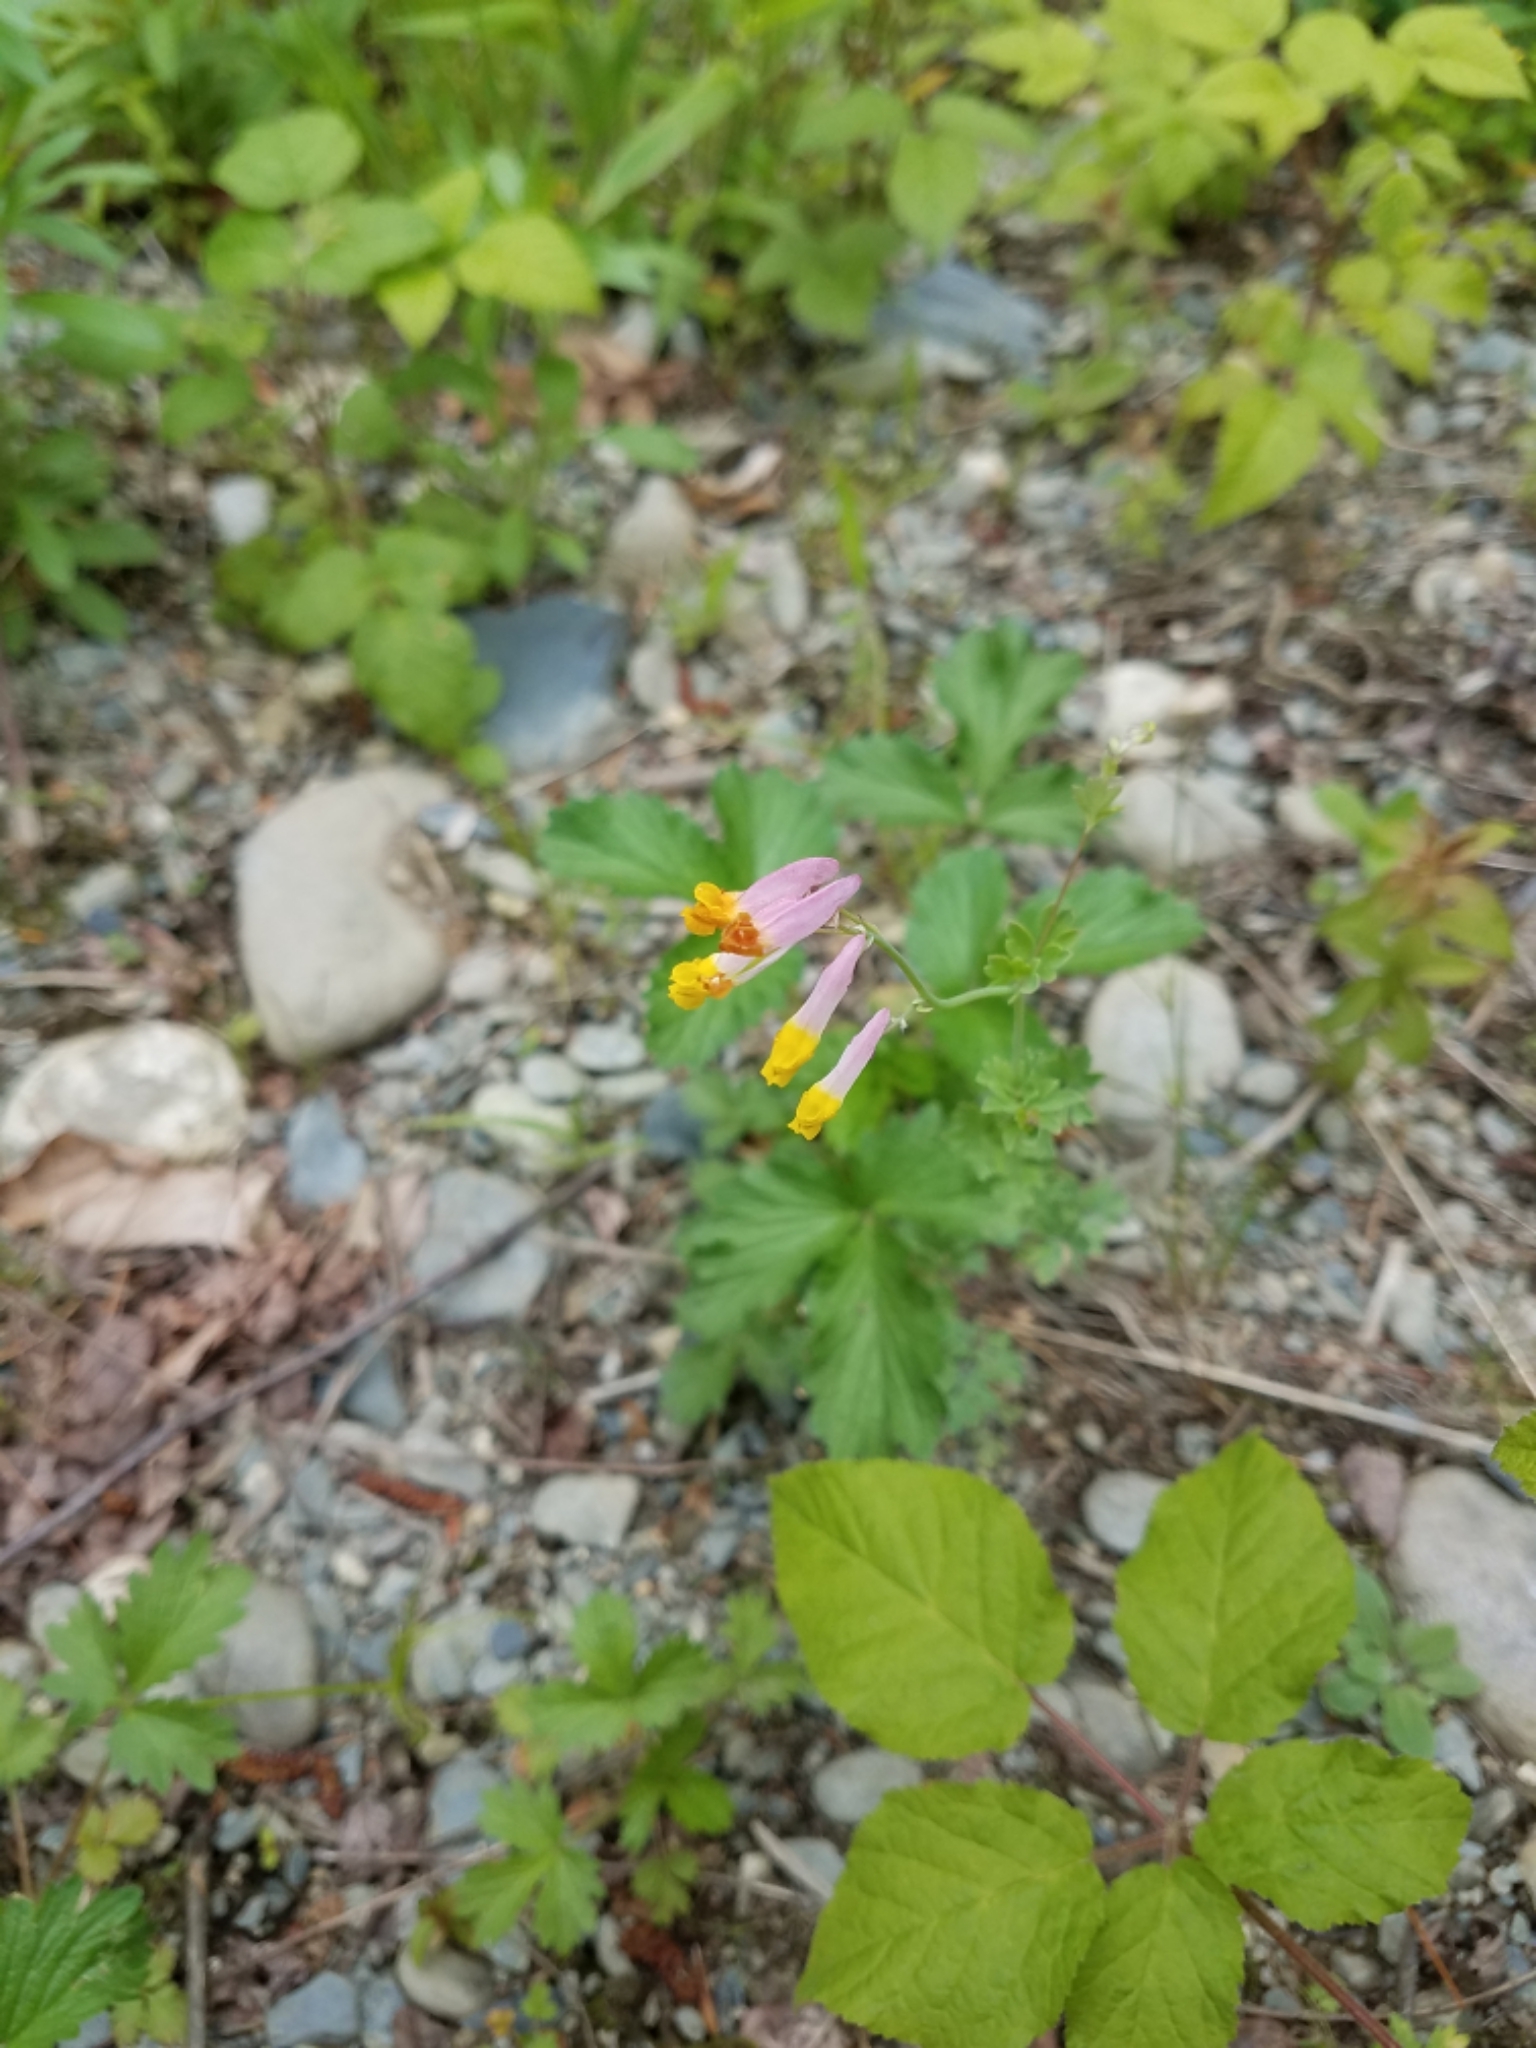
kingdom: Plantae
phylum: Tracheophyta
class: Magnoliopsida
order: Ranunculales
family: Papaveraceae
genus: Capnoides
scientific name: Capnoides sempervirens
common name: Rock harlequin
